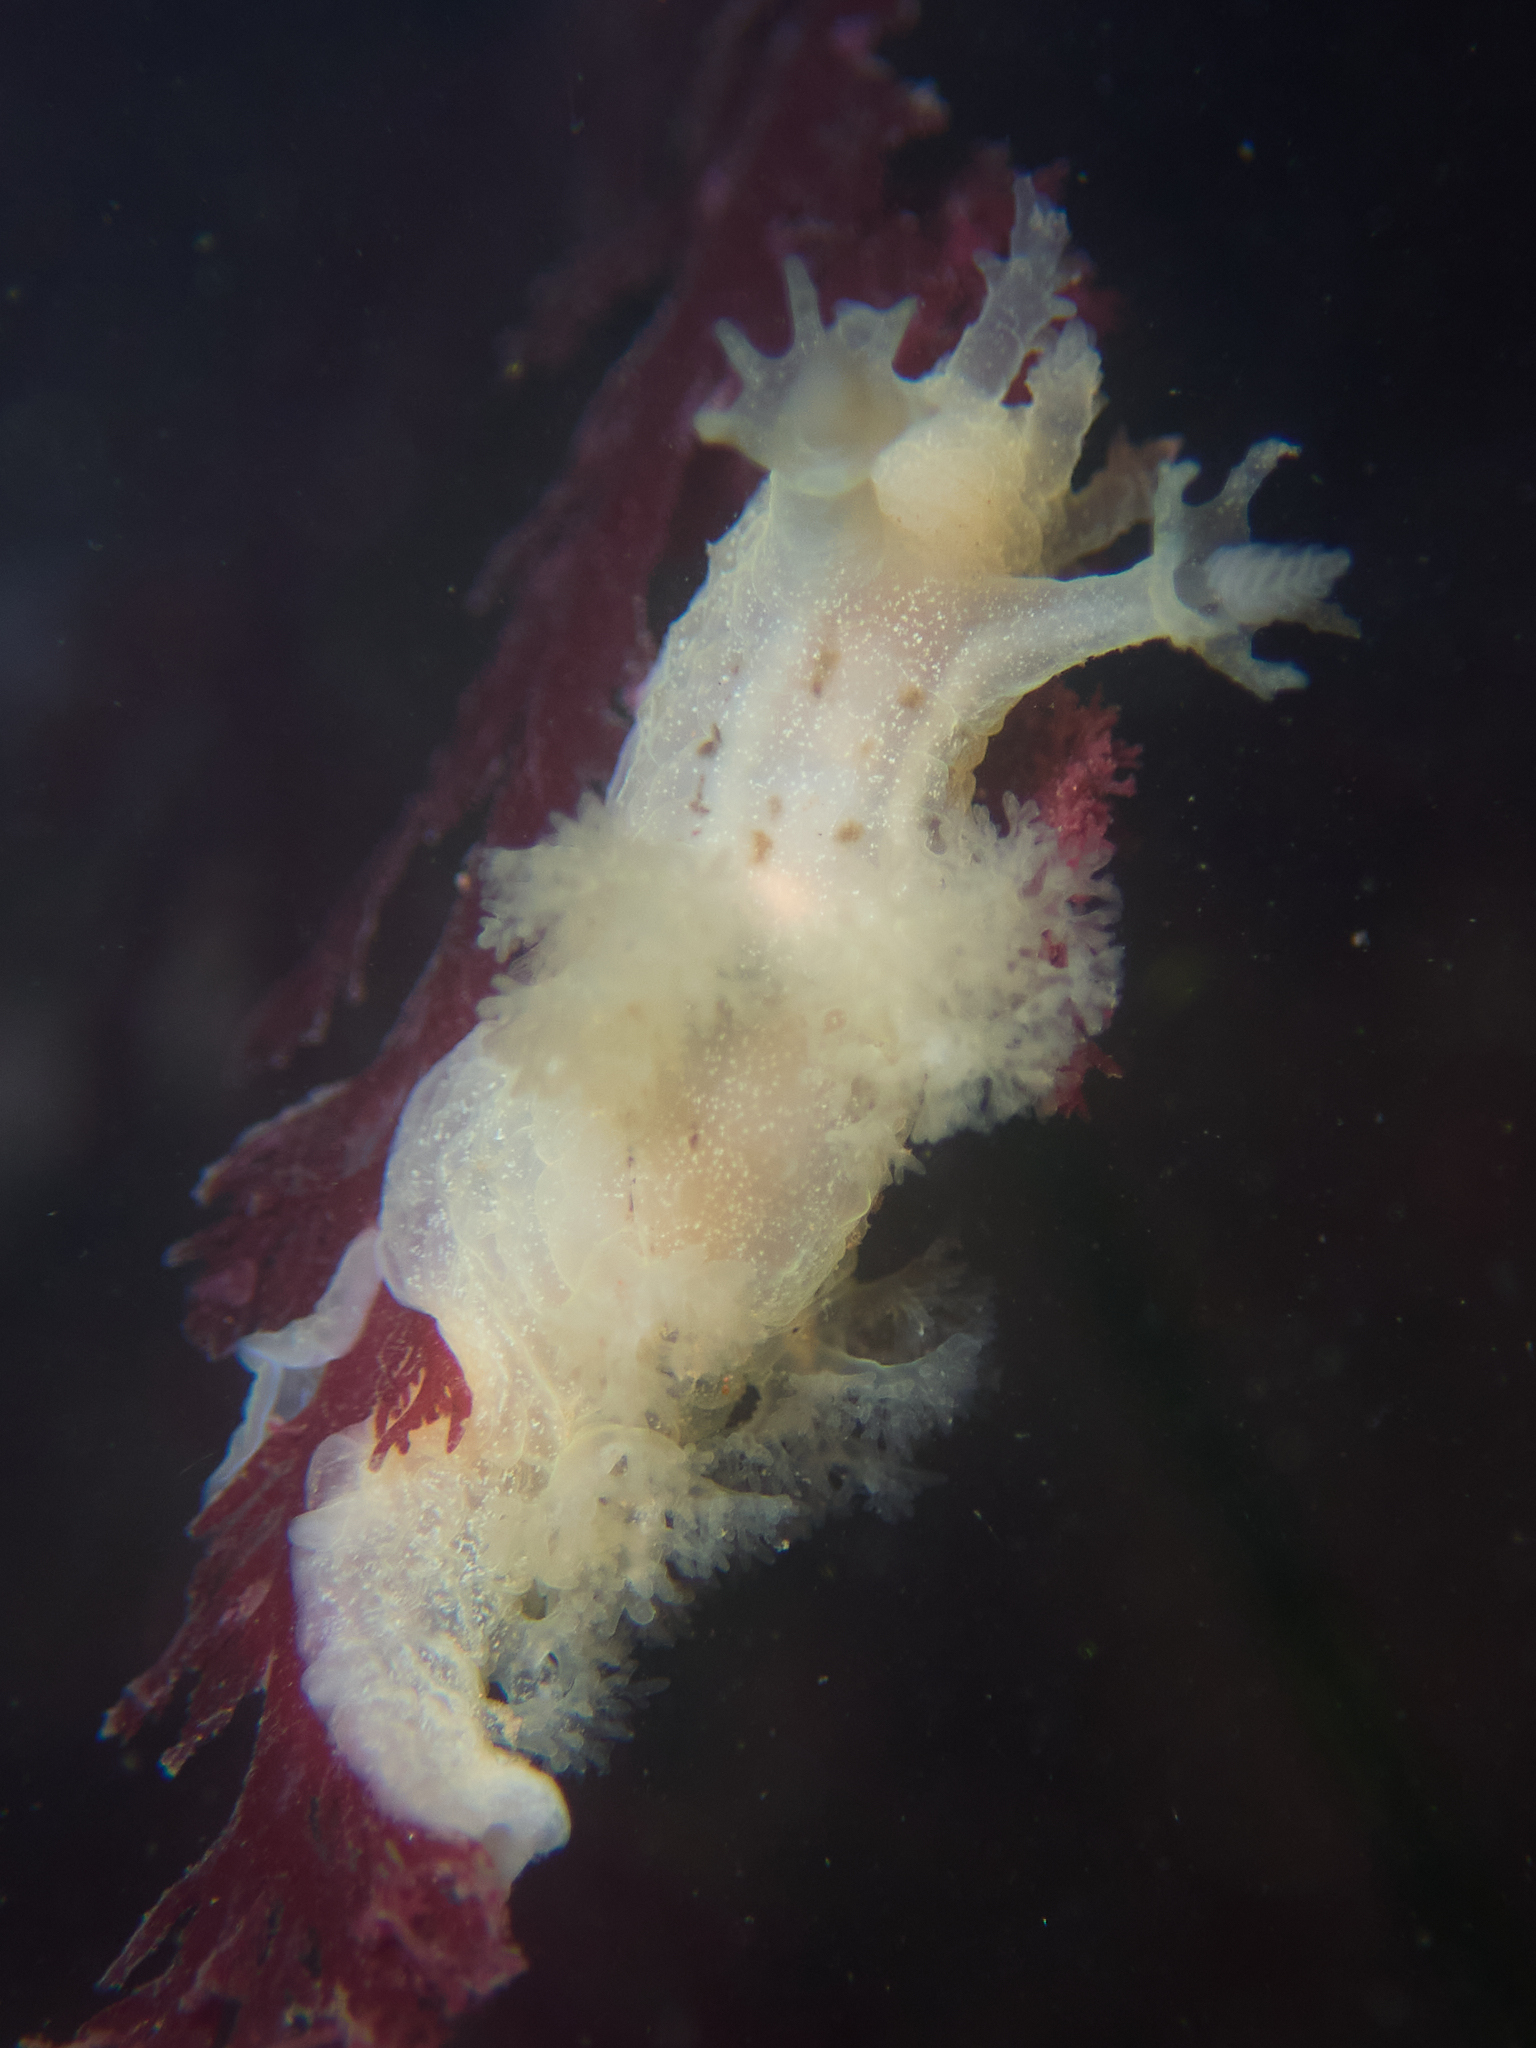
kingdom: Animalia
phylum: Mollusca
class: Gastropoda
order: Nudibranchia
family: Dendronotidae
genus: Dendronotus
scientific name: Dendronotus subramosus
